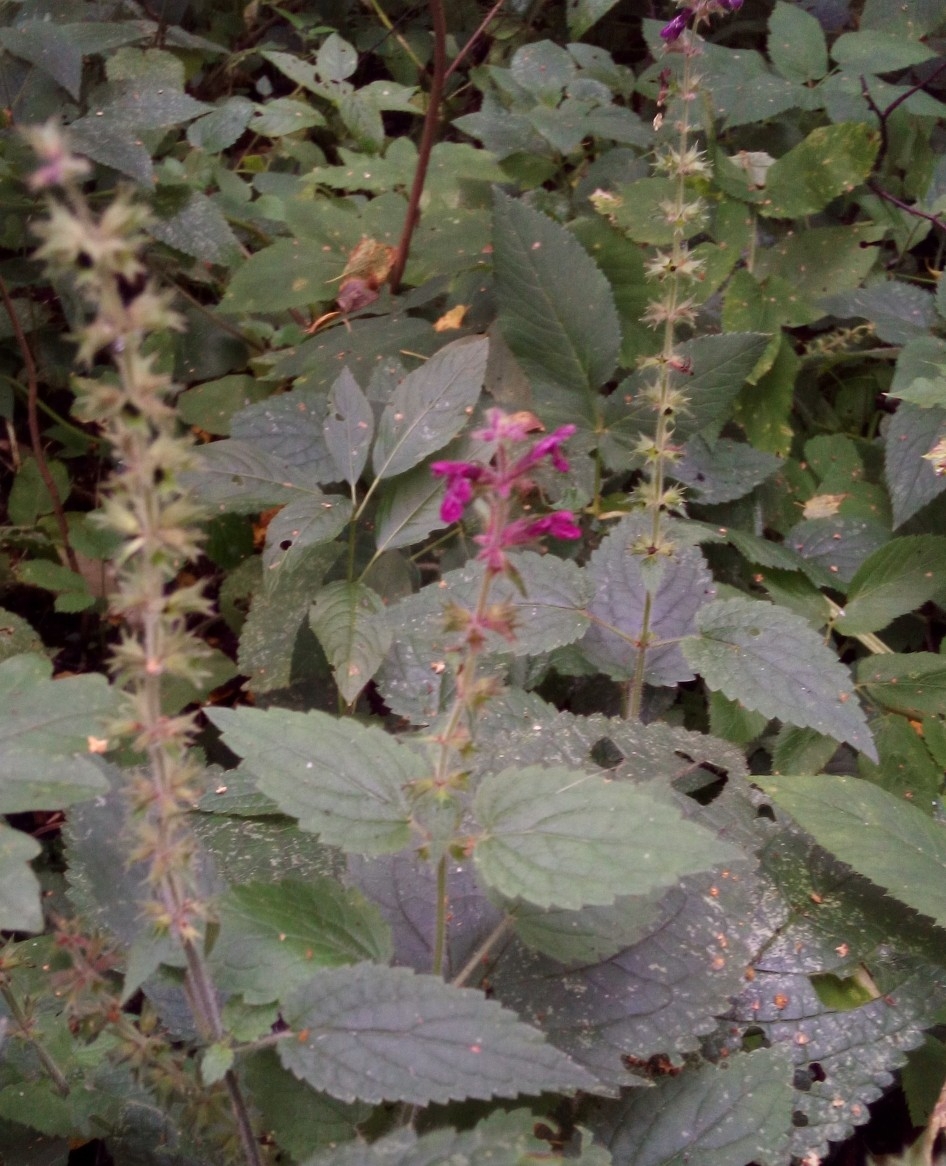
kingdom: Plantae
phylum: Tracheophyta
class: Magnoliopsida
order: Lamiales
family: Lamiaceae
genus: Stachys
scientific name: Stachys sylvatica
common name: Hedge woundwort
